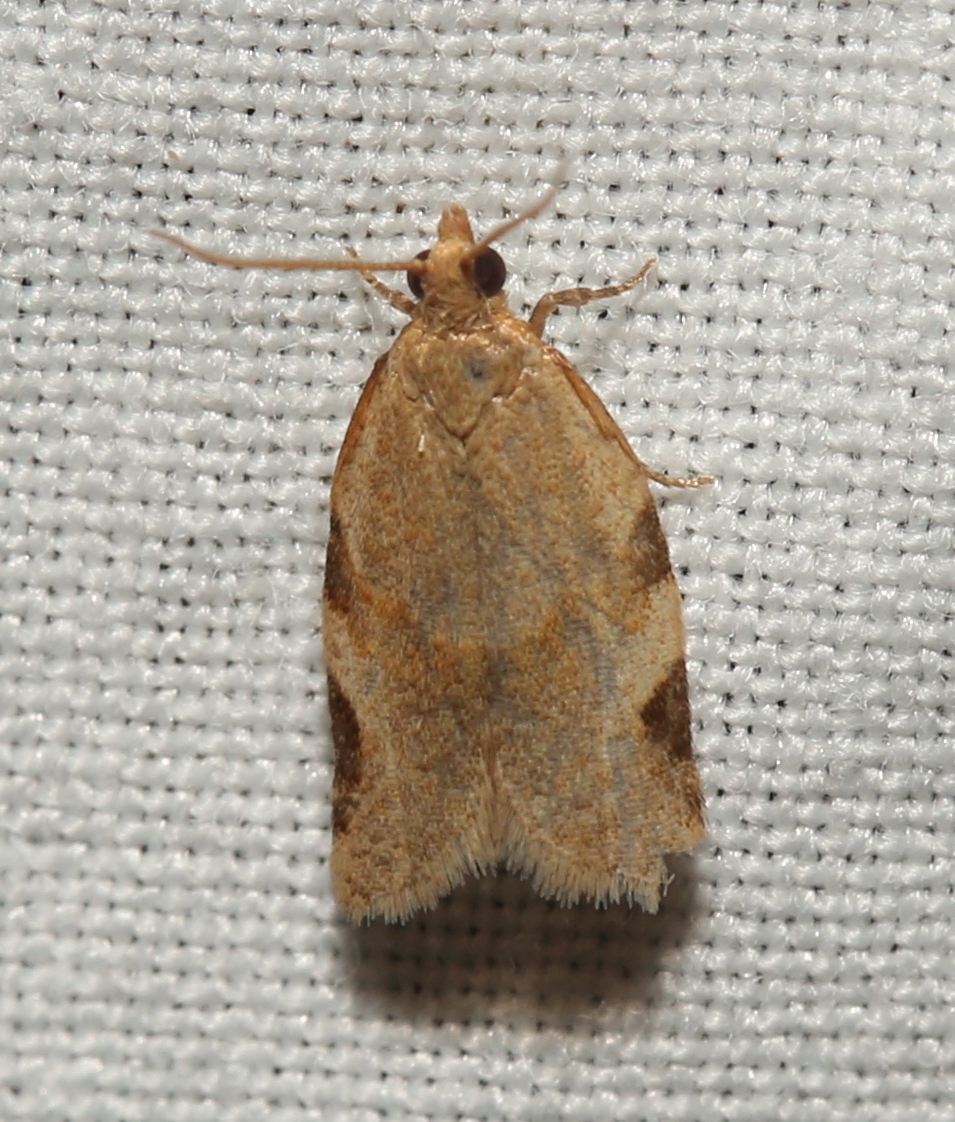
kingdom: Animalia
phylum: Arthropoda
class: Insecta
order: Lepidoptera
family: Tortricidae
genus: Clepsis
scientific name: Clepsis virescana
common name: Greenish apple moth
